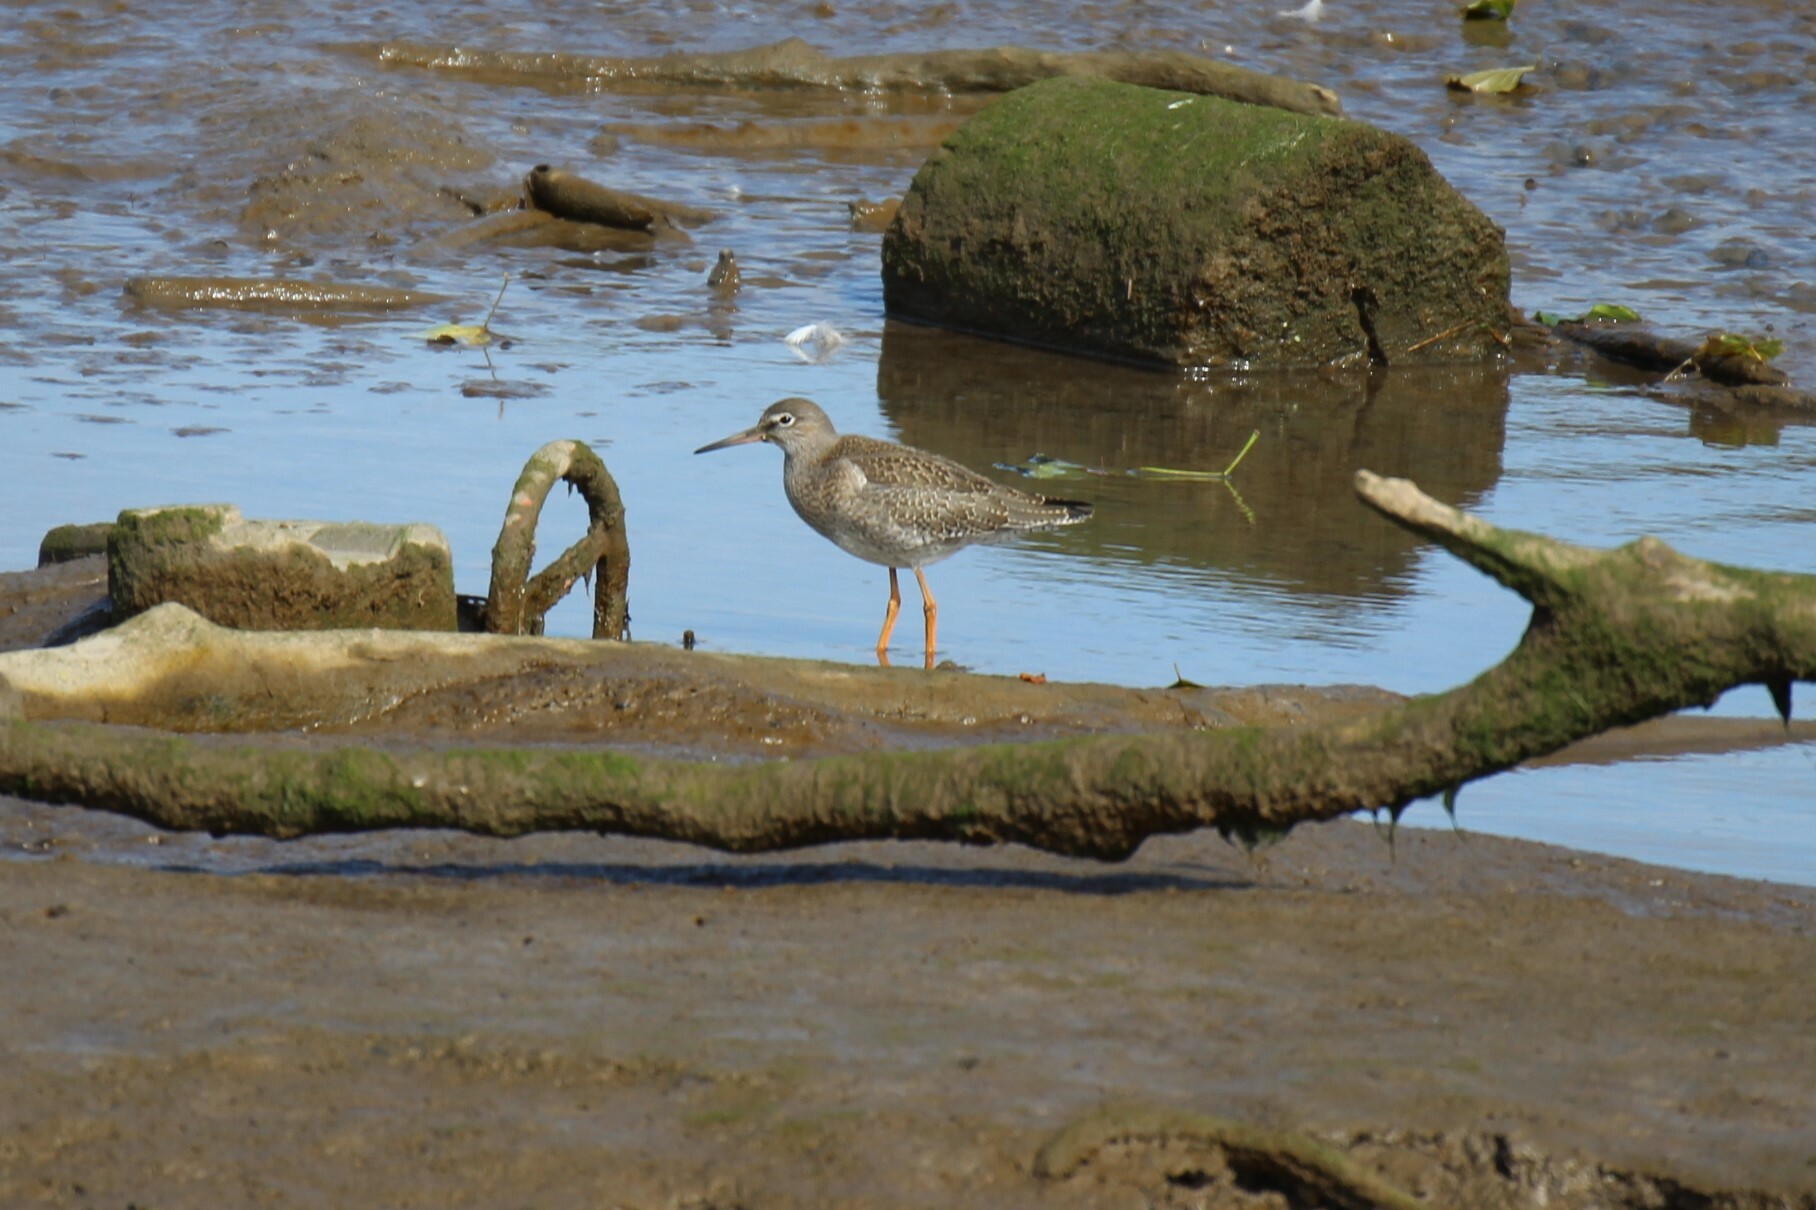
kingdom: Animalia
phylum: Chordata
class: Aves
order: Charadriiformes
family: Scolopacidae
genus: Tringa
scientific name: Tringa totanus
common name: Common redshank
